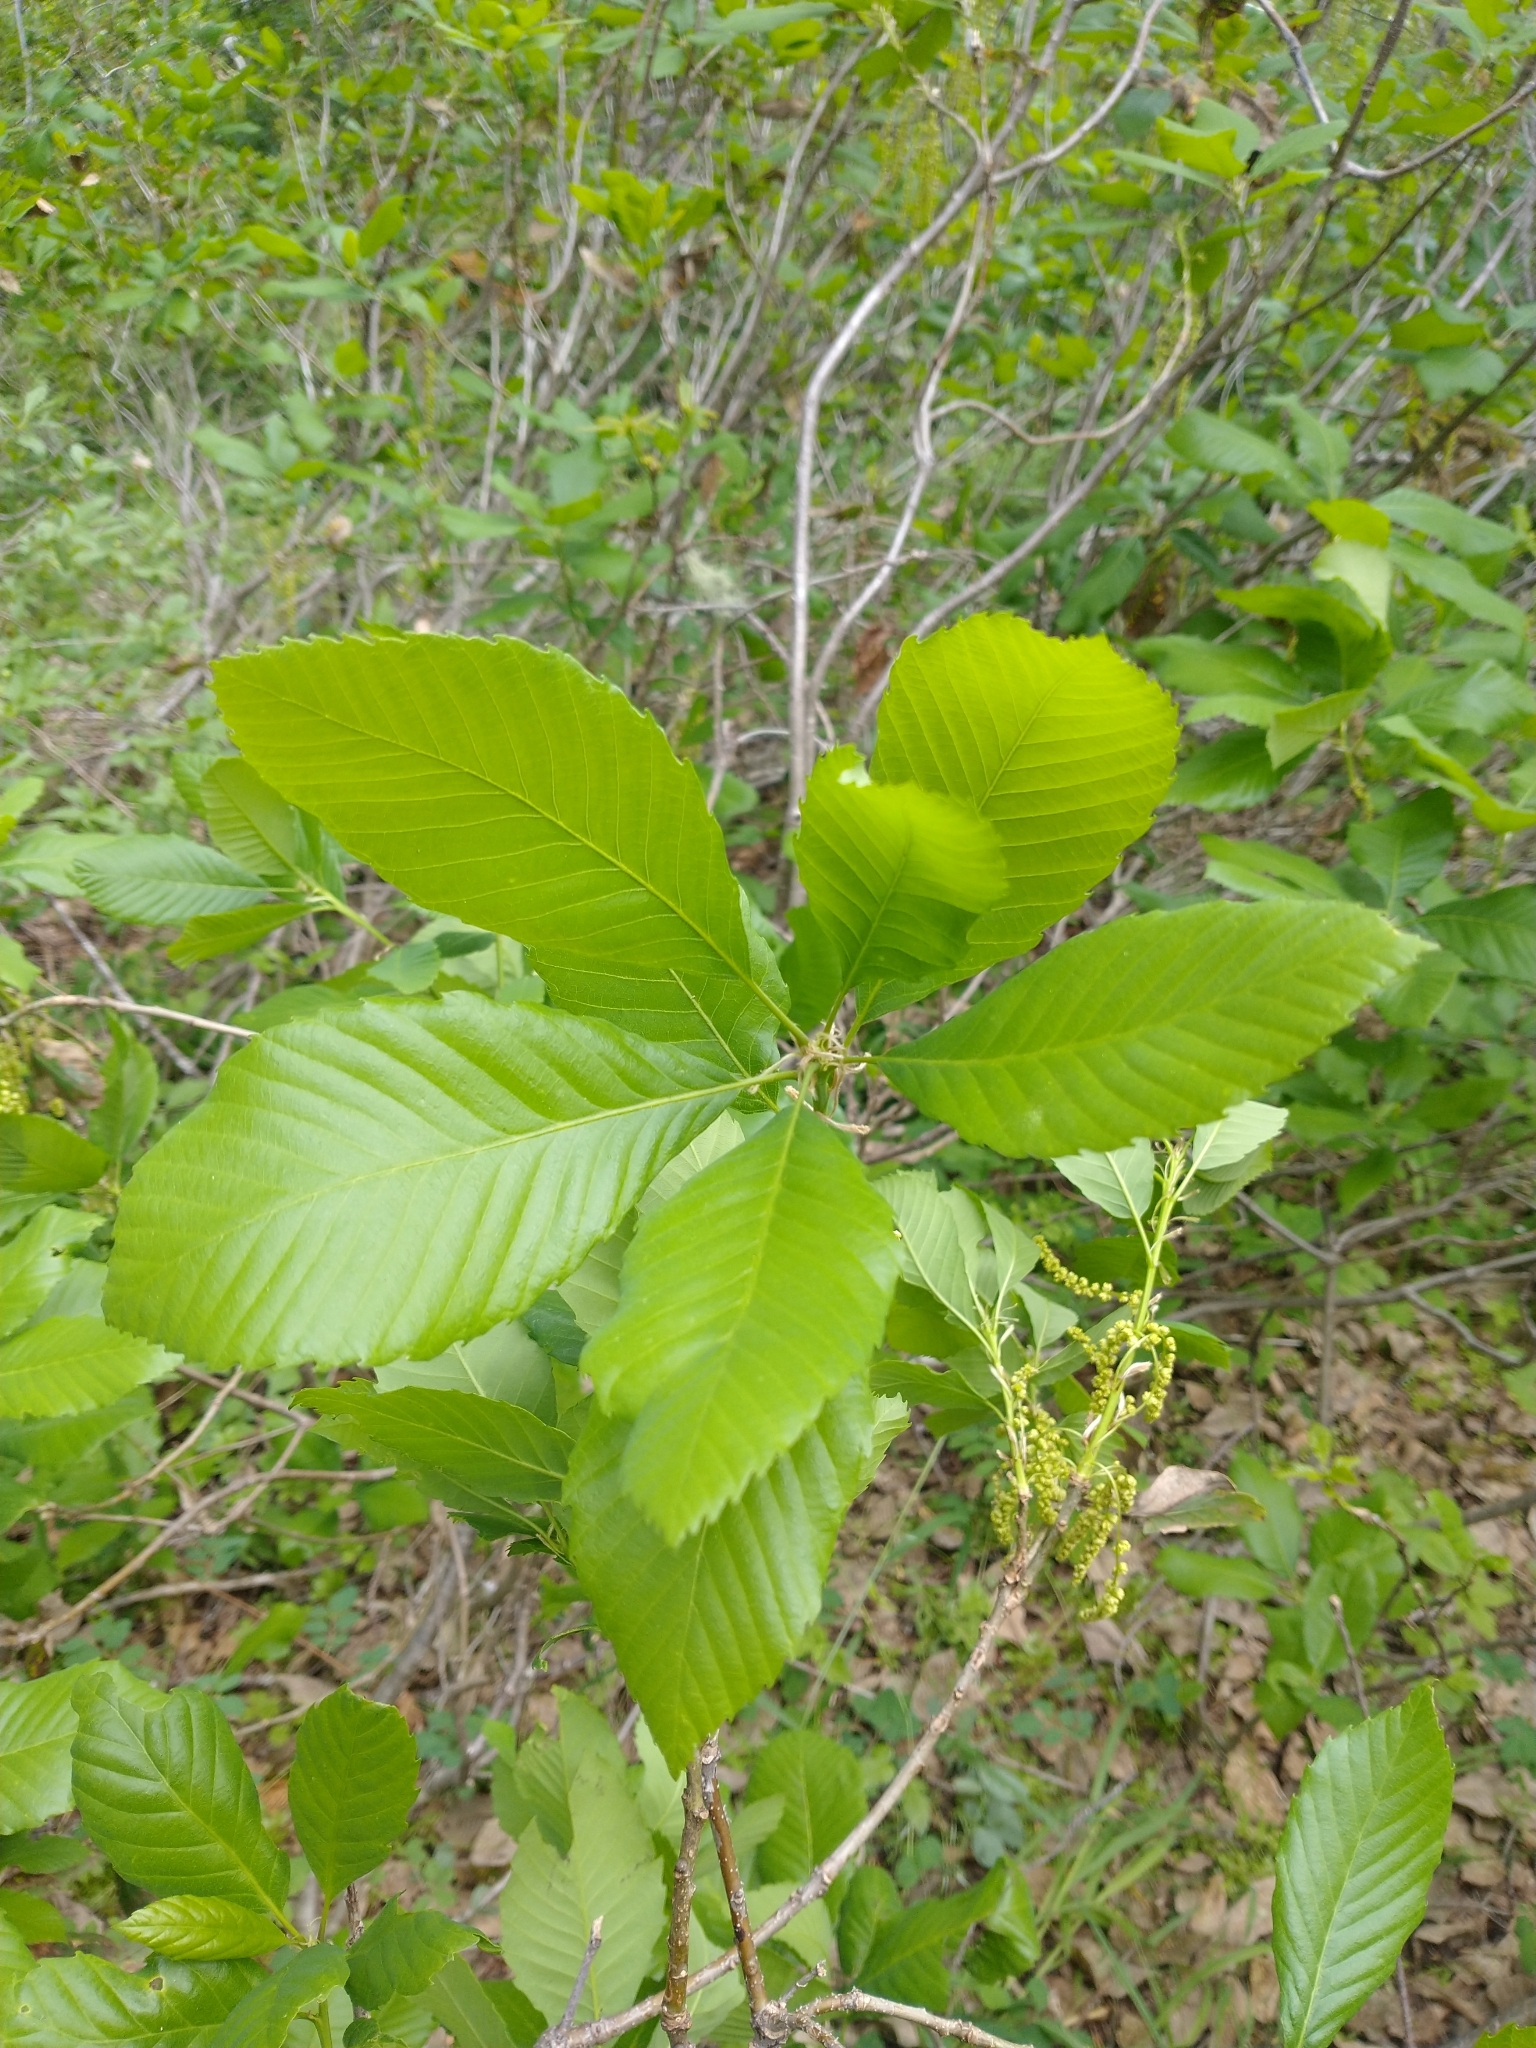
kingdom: Plantae
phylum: Tracheophyta
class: Magnoliopsida
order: Fagales
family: Fagaceae
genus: Quercus
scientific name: Quercus sadleriana
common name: Deer oak
